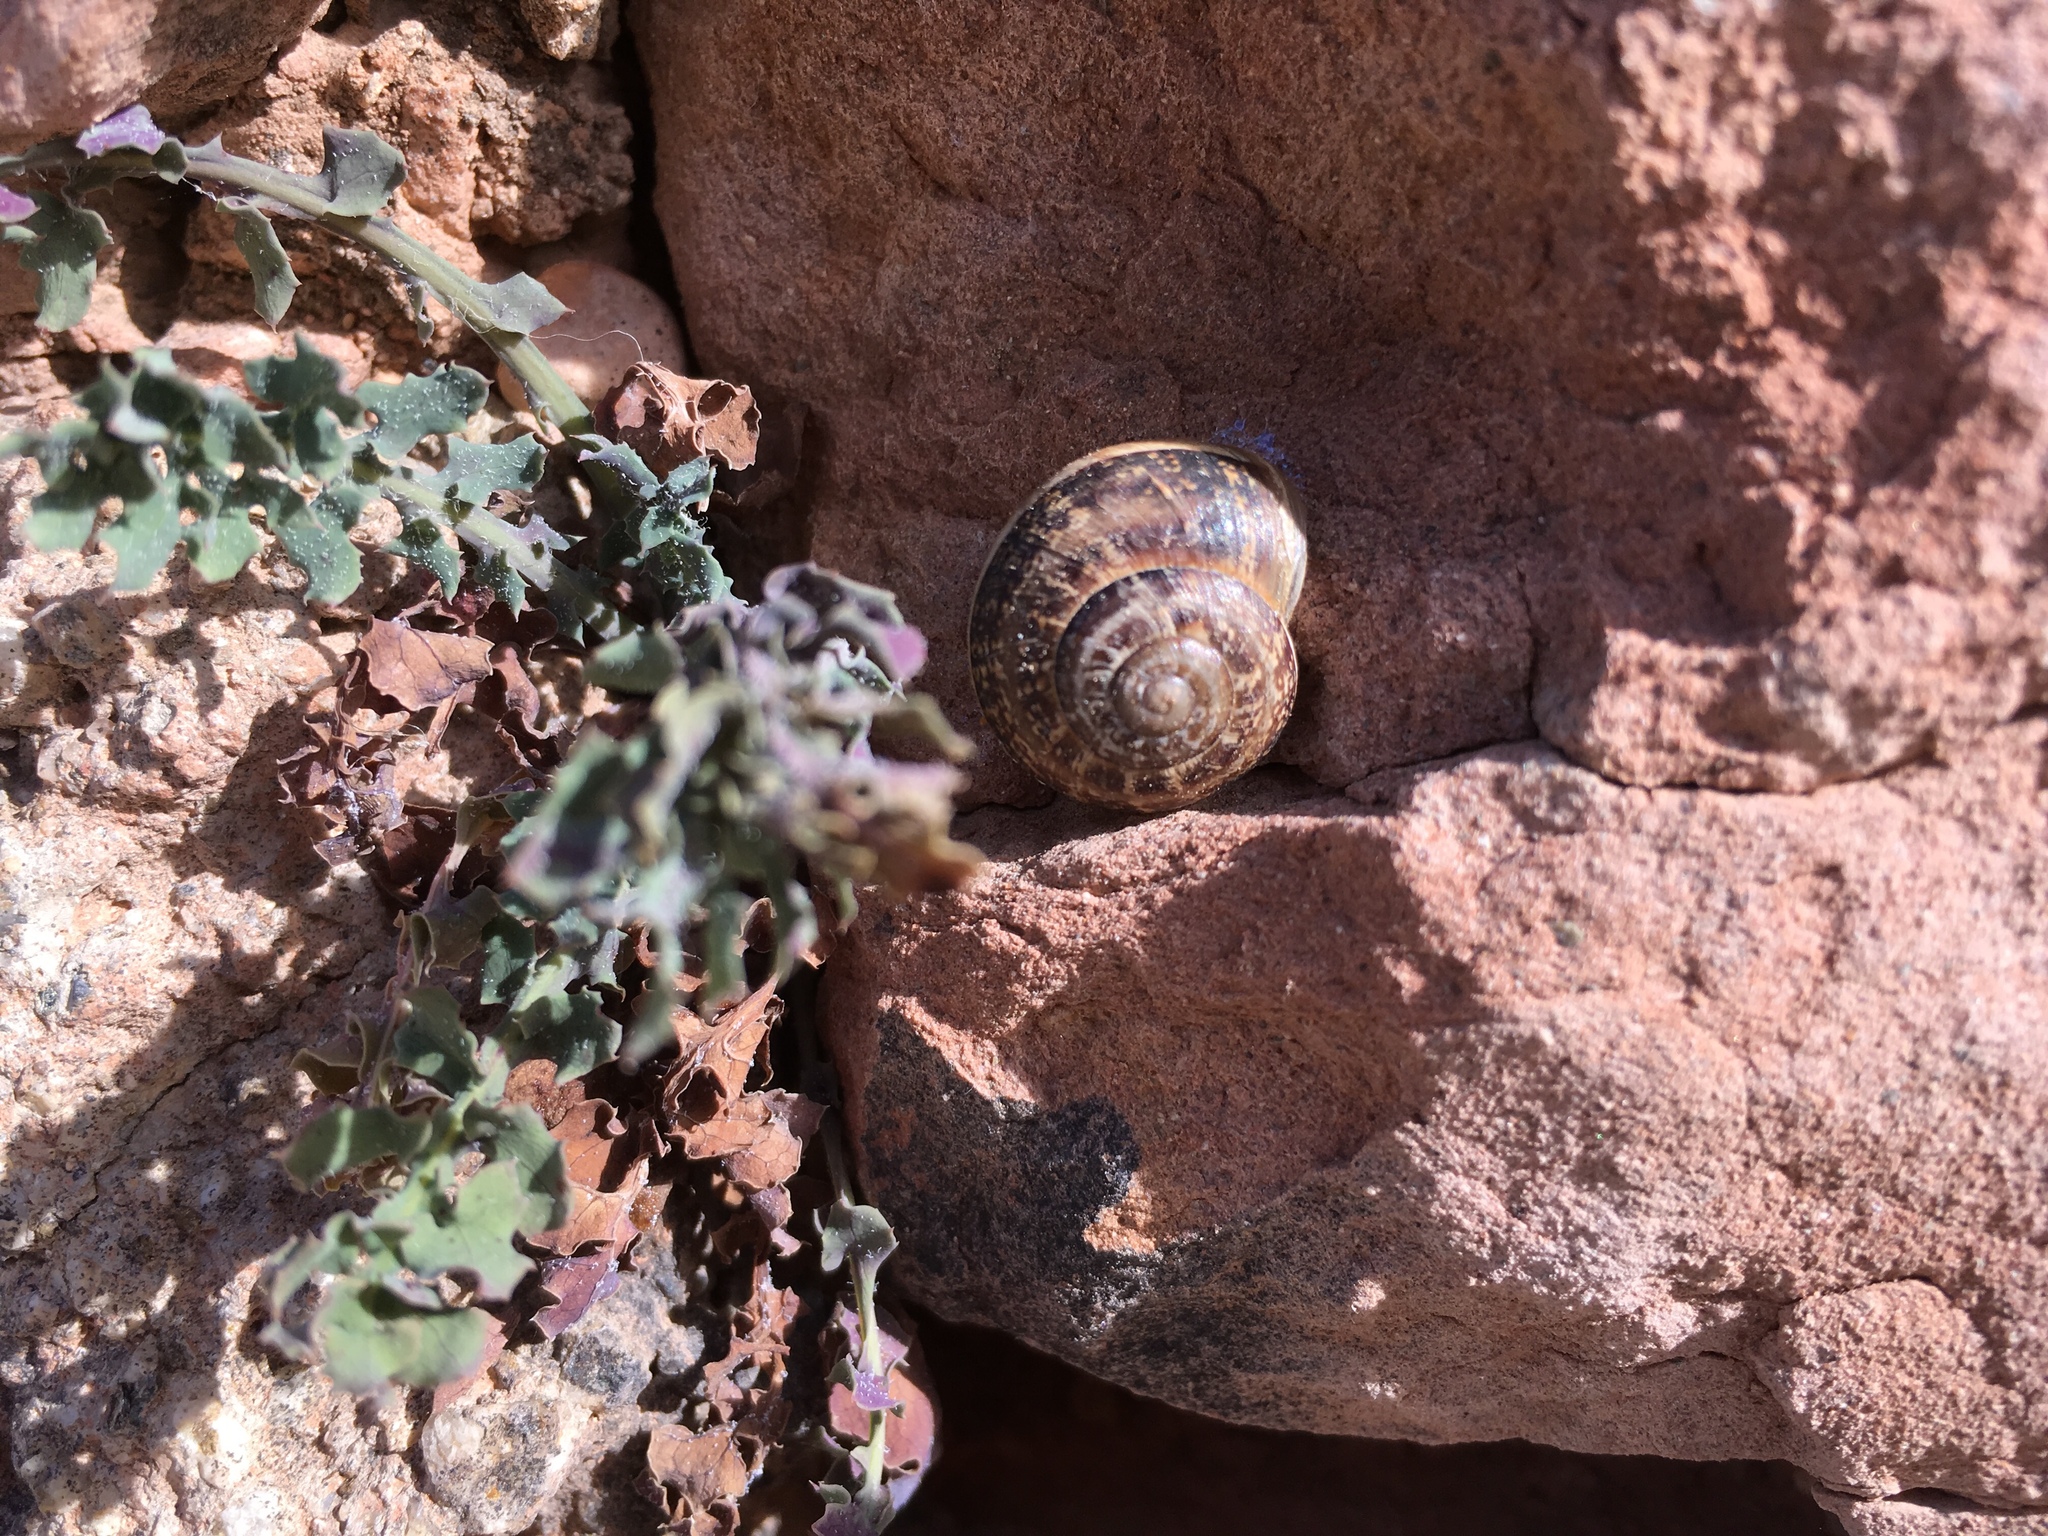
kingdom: Animalia
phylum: Mollusca
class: Gastropoda
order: Stylommatophora
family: Helicidae
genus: Eobania
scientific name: Eobania vermiculata
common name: Chocolateband snail
